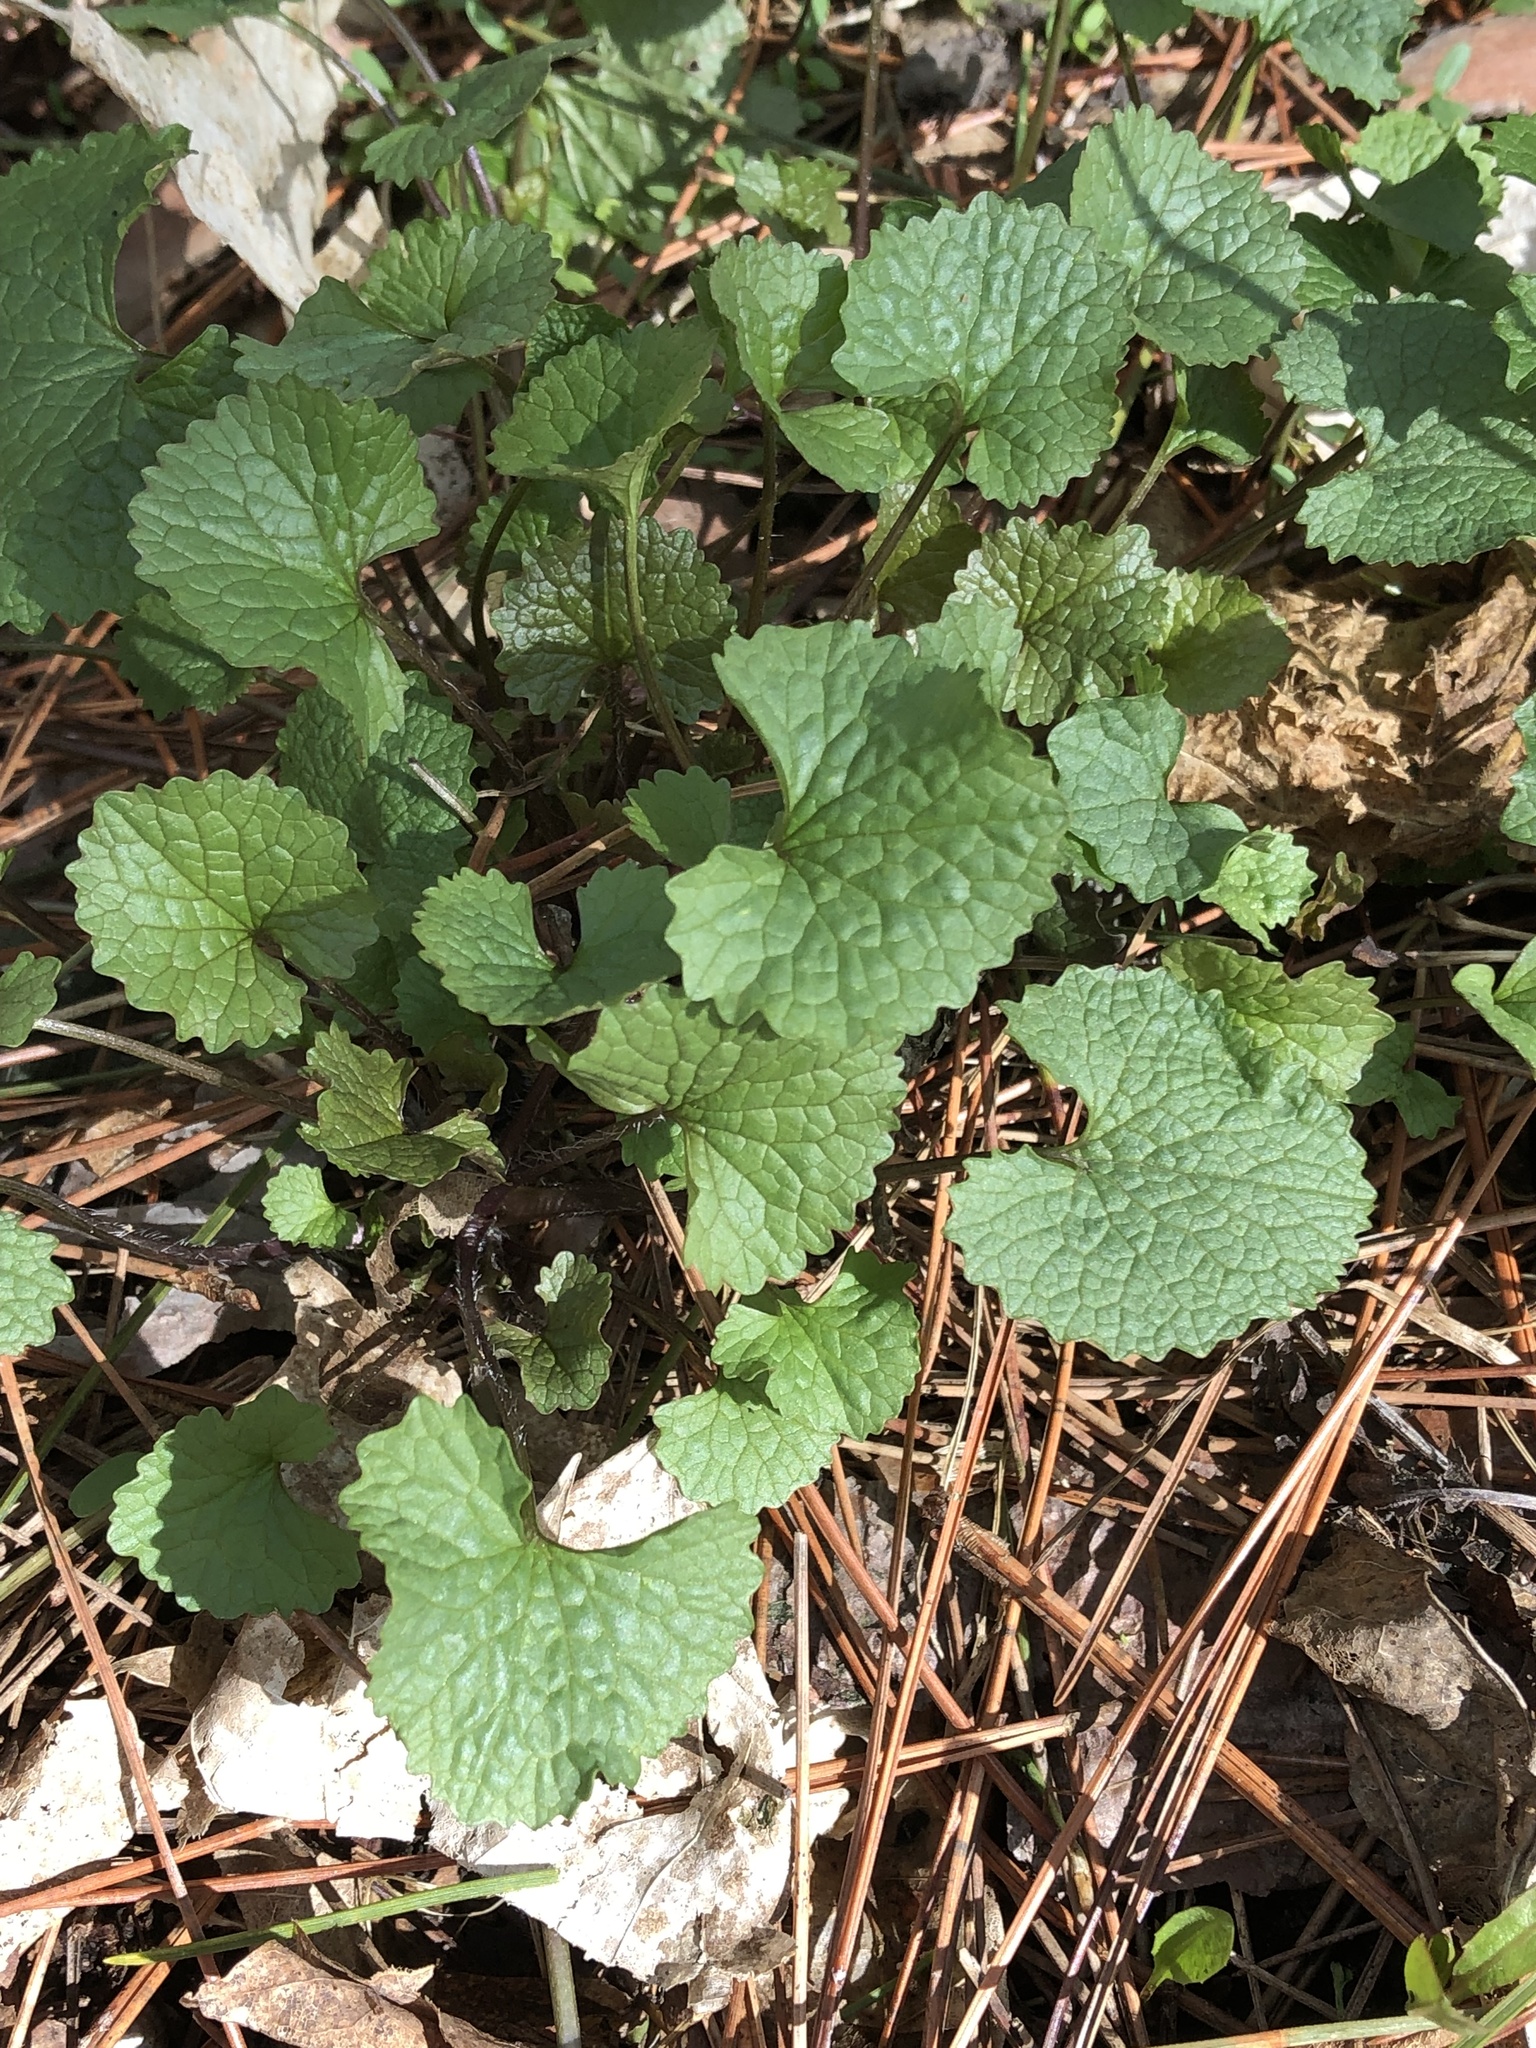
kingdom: Plantae
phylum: Tracheophyta
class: Magnoliopsida
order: Brassicales
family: Brassicaceae
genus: Alliaria
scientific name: Alliaria petiolata
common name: Garlic mustard
